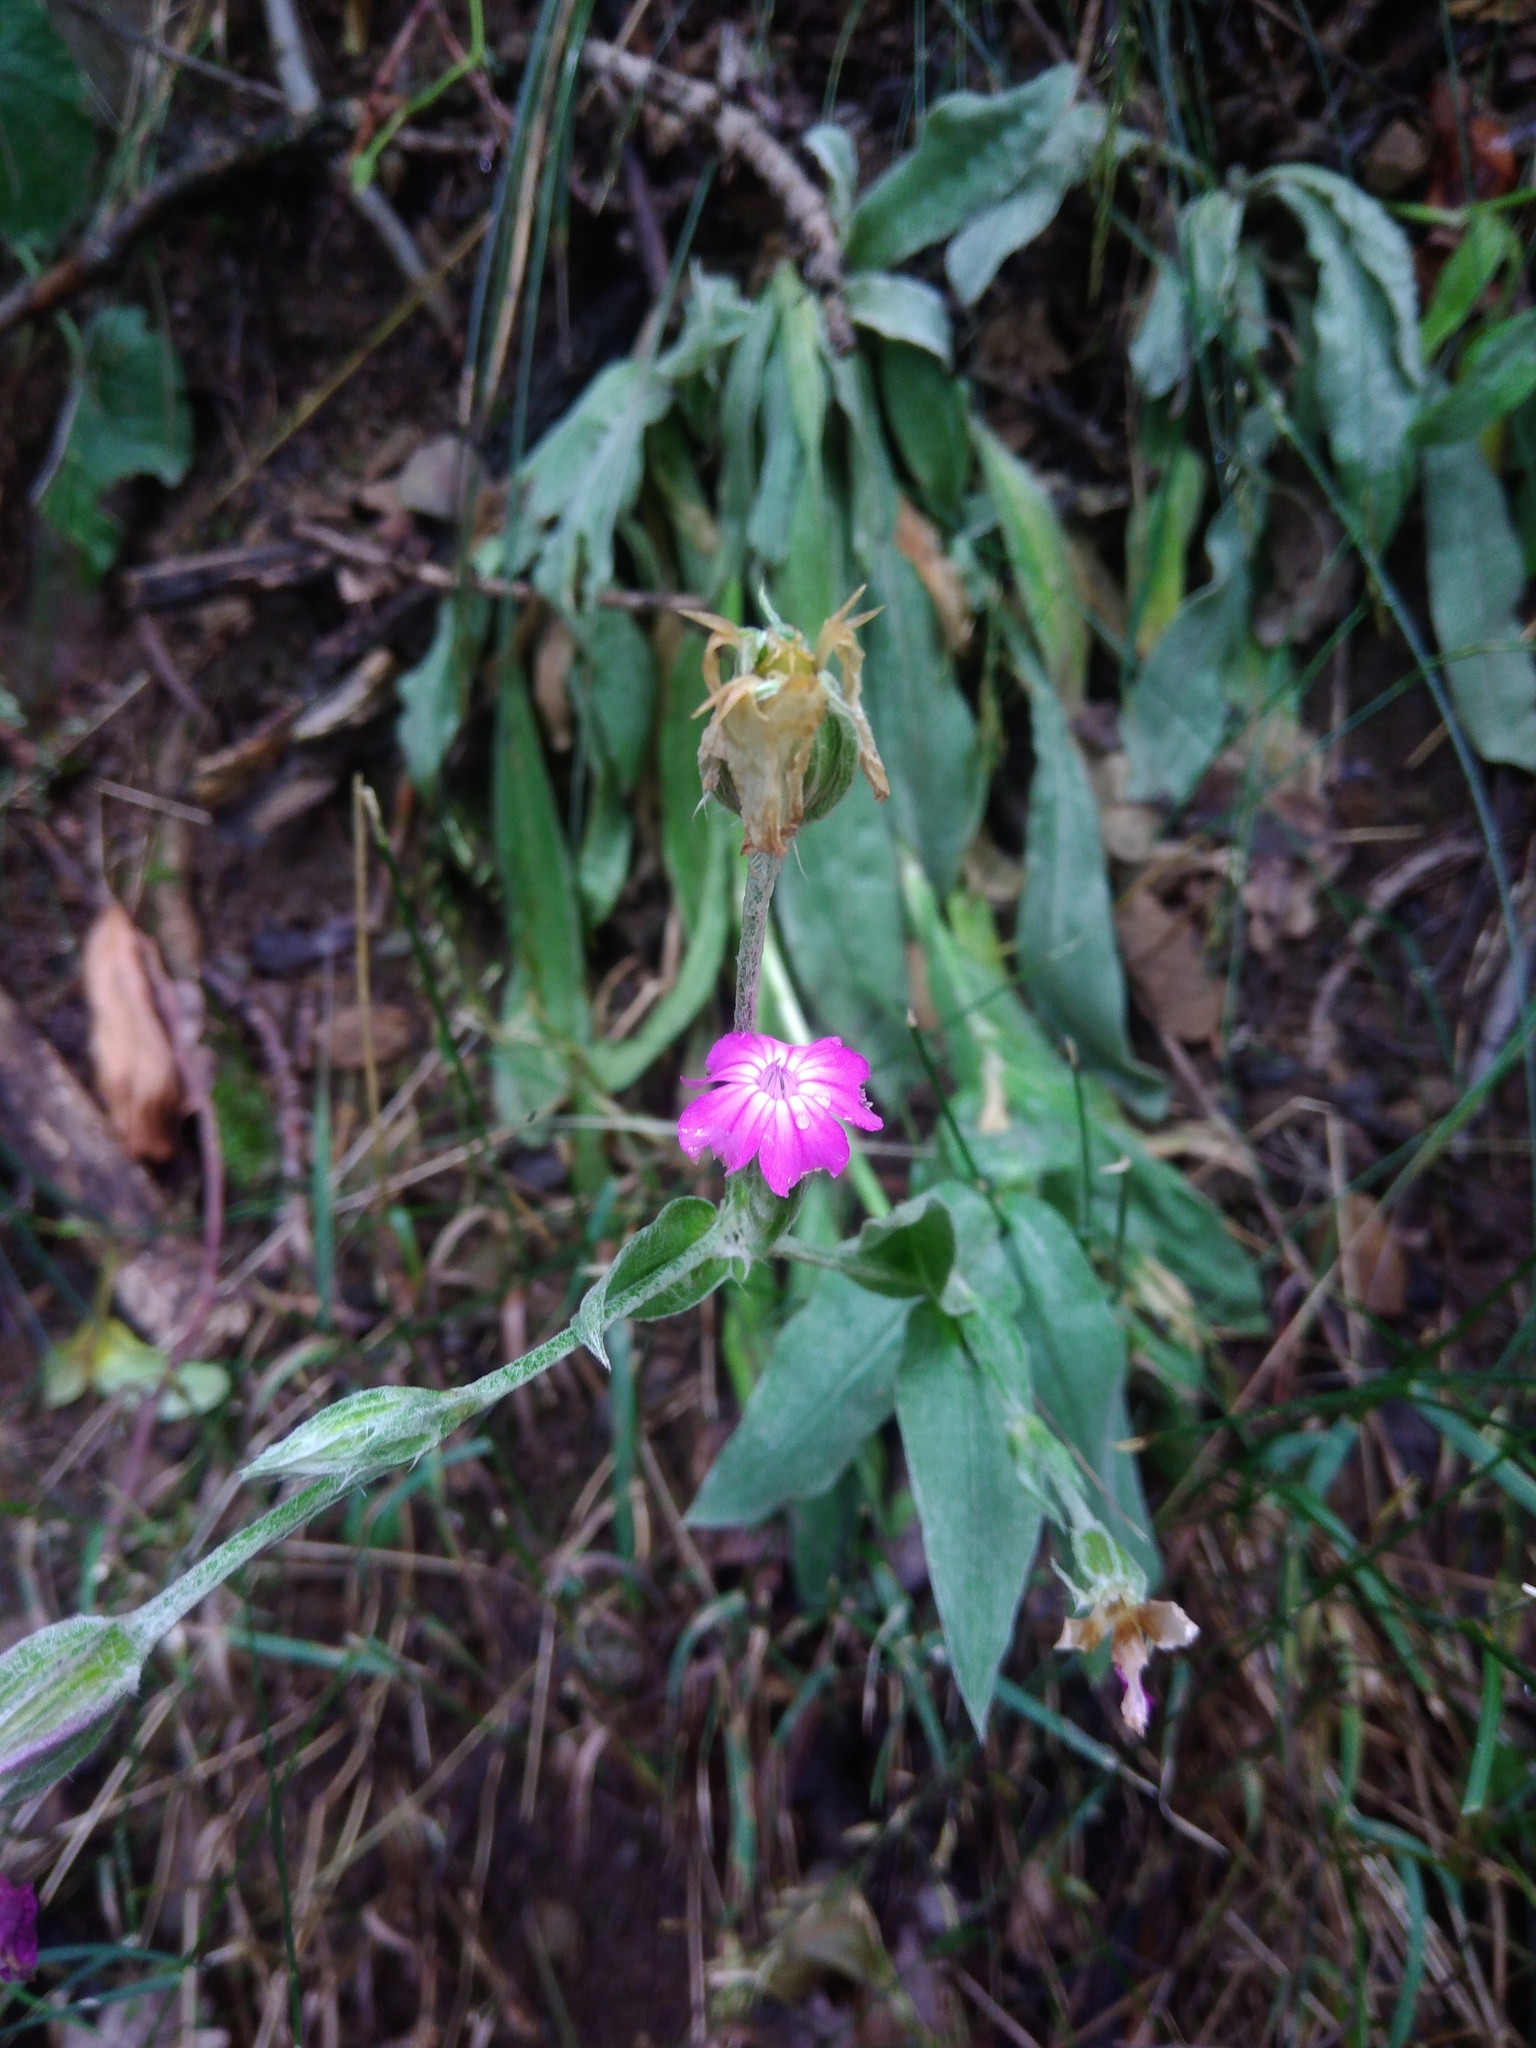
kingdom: Plantae
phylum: Tracheophyta
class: Magnoliopsida
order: Caryophyllales
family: Caryophyllaceae
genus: Silene
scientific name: Silene coronaria
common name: Rose campion
